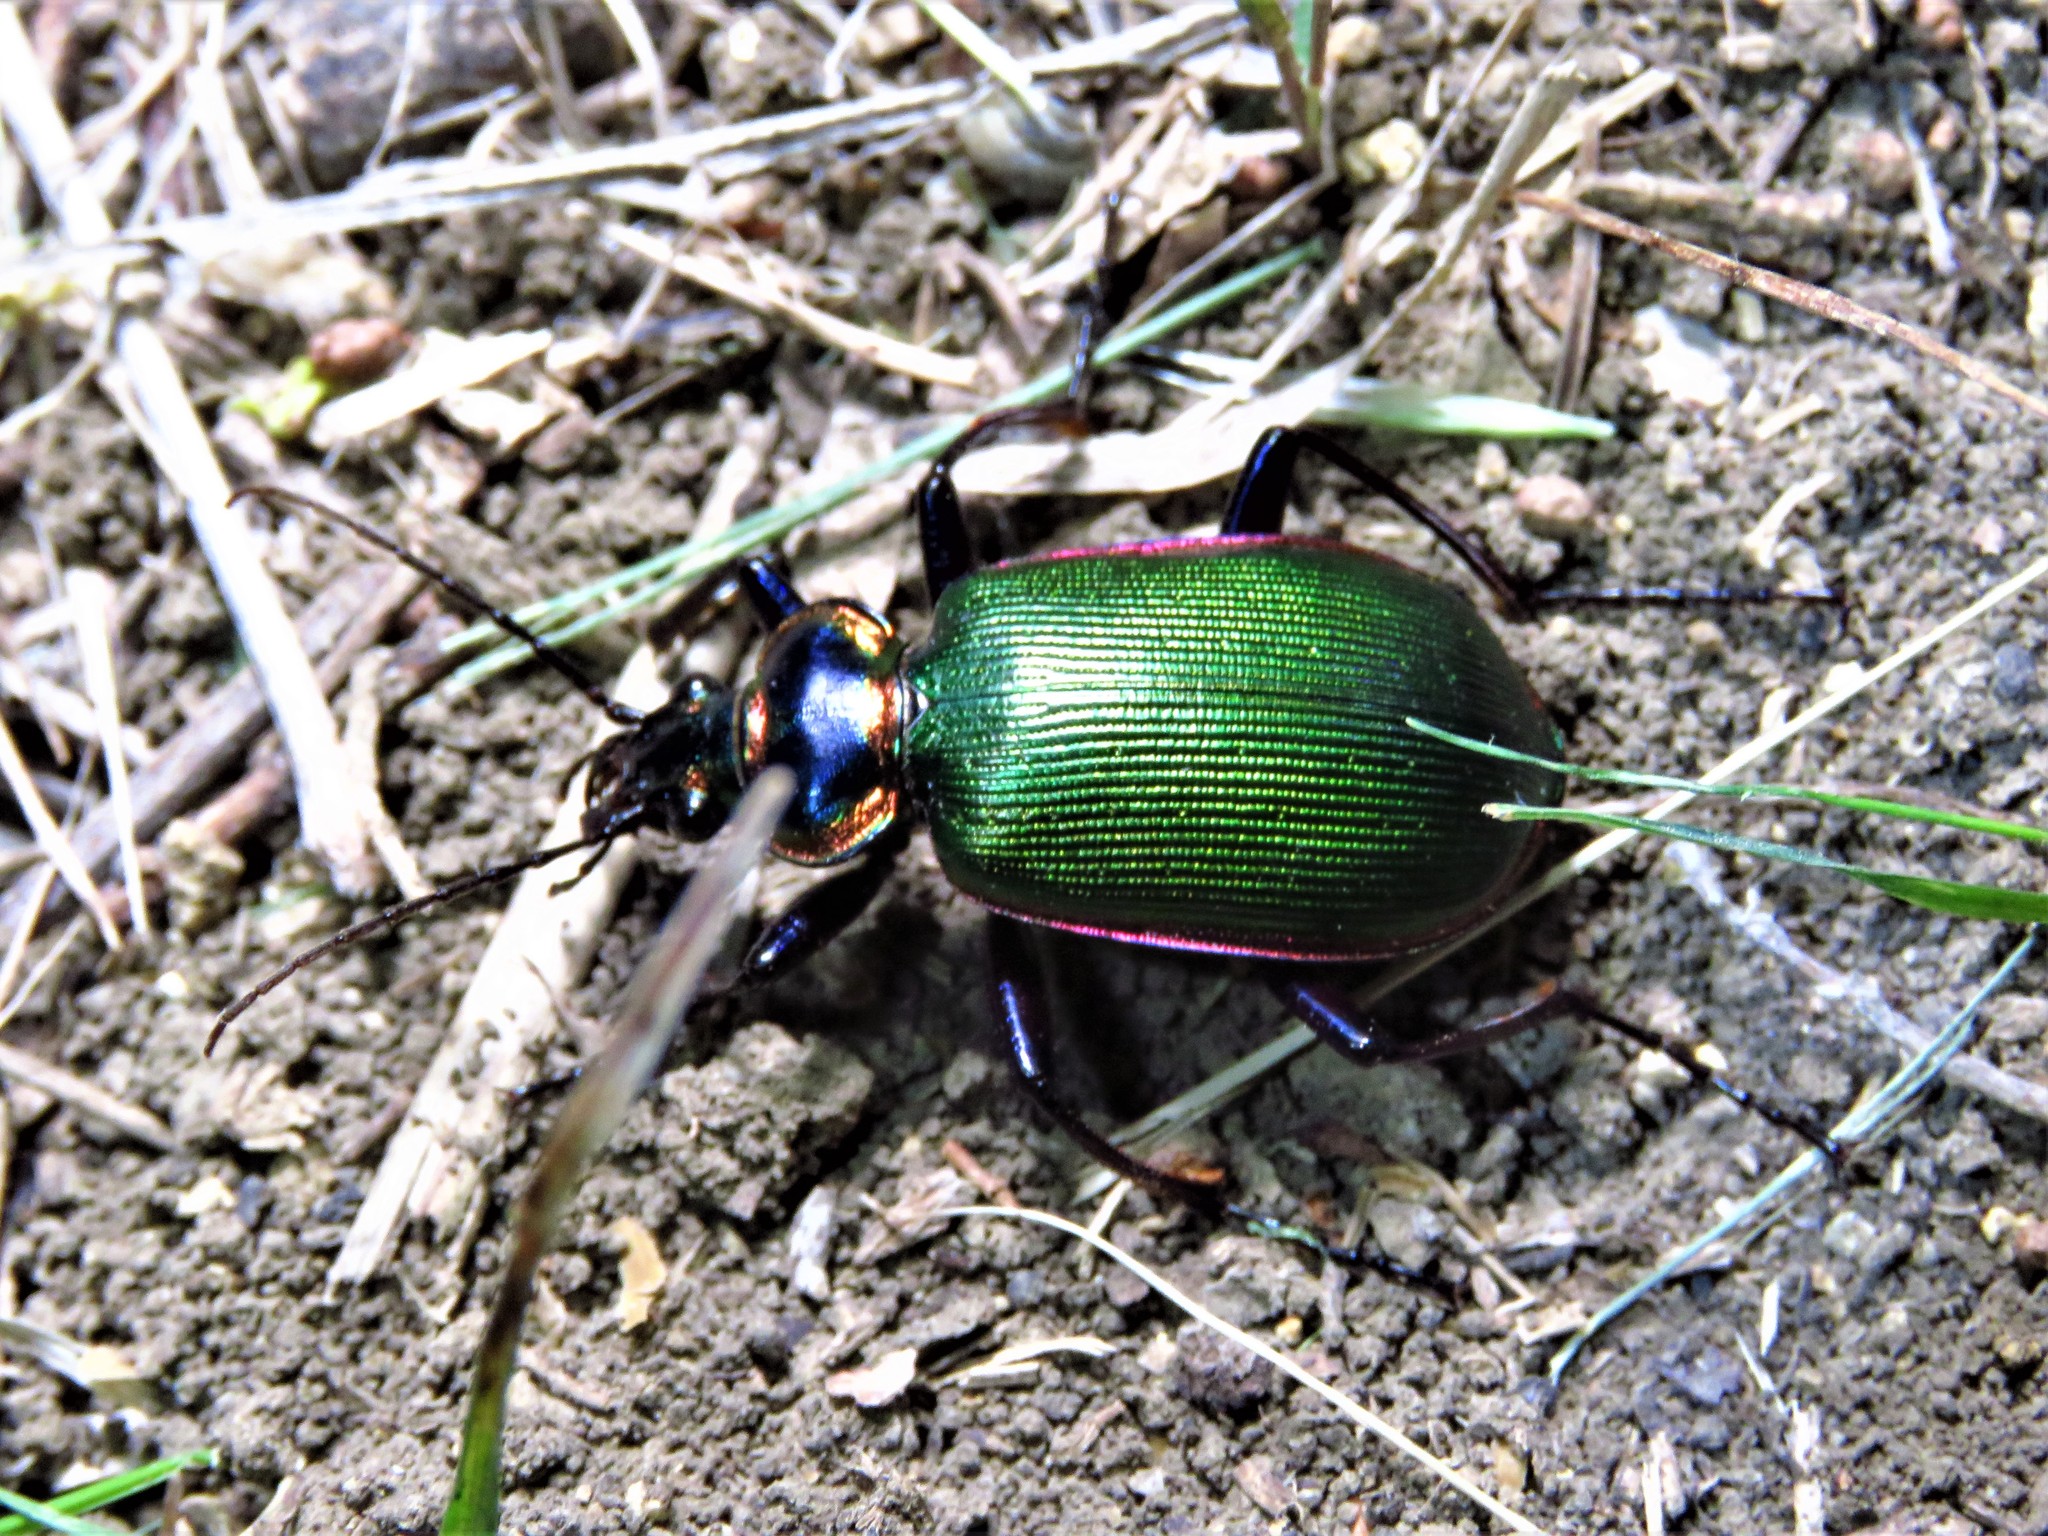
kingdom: Animalia
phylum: Arthropoda
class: Insecta
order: Coleoptera
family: Carabidae
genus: Calosoma
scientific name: Calosoma scrutator
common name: Fiery searcher beetle
